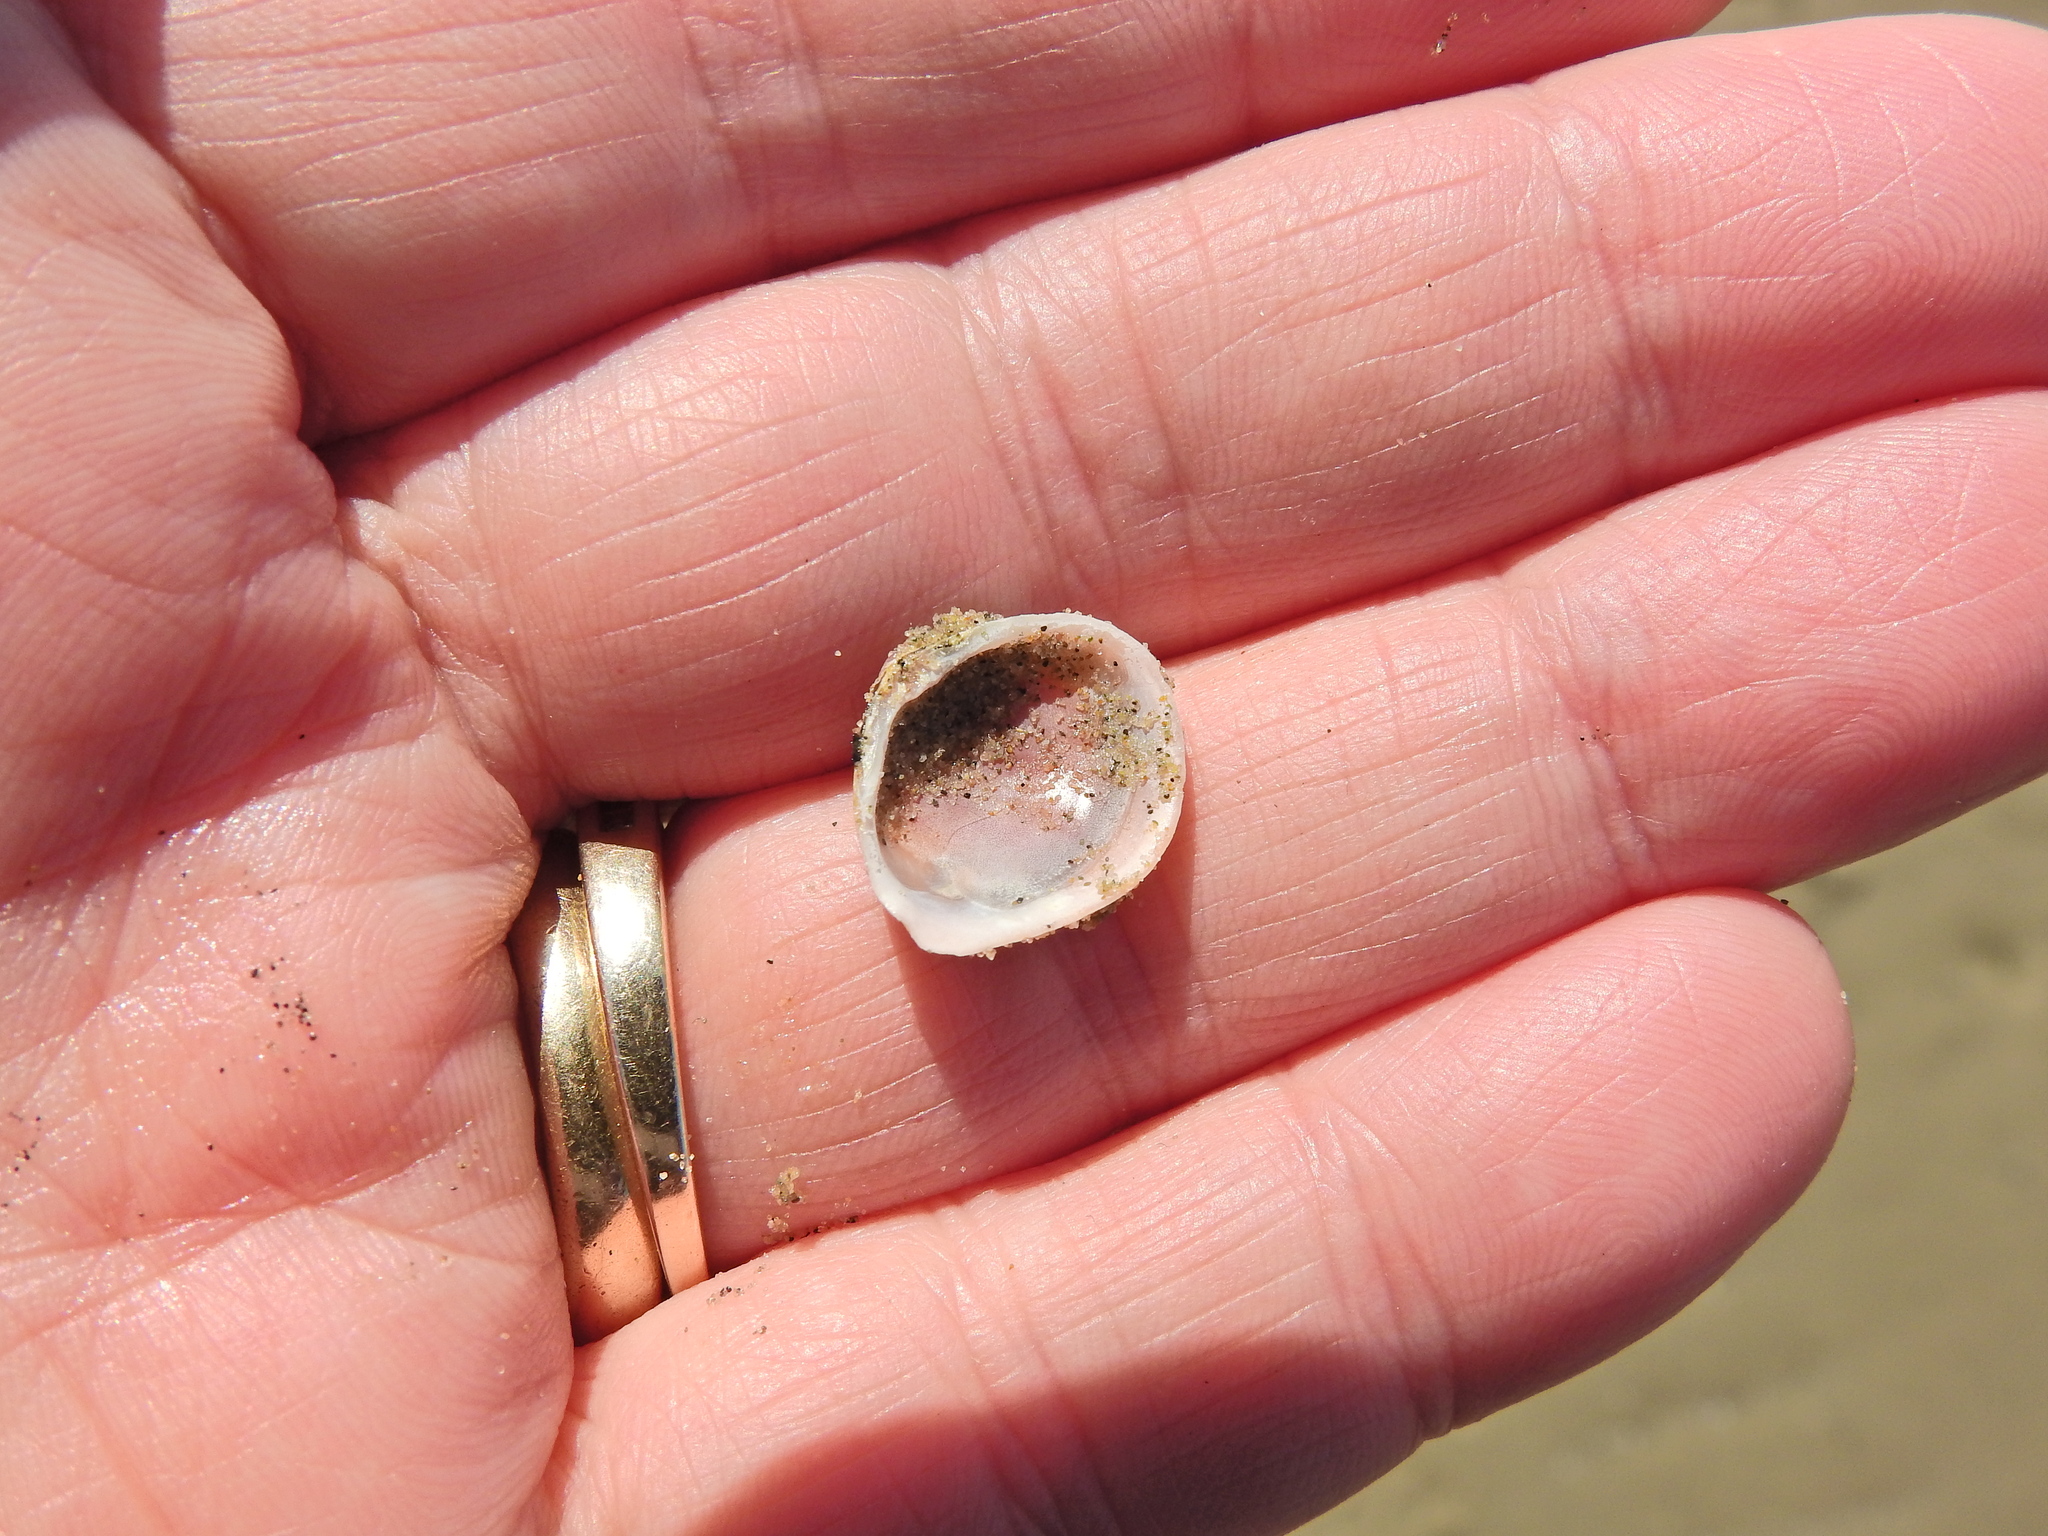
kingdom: Animalia
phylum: Mollusca
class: Bivalvia
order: Cardiida
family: Tellinidae
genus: Macoma
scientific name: Macoma balthica
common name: Baltic tellin
